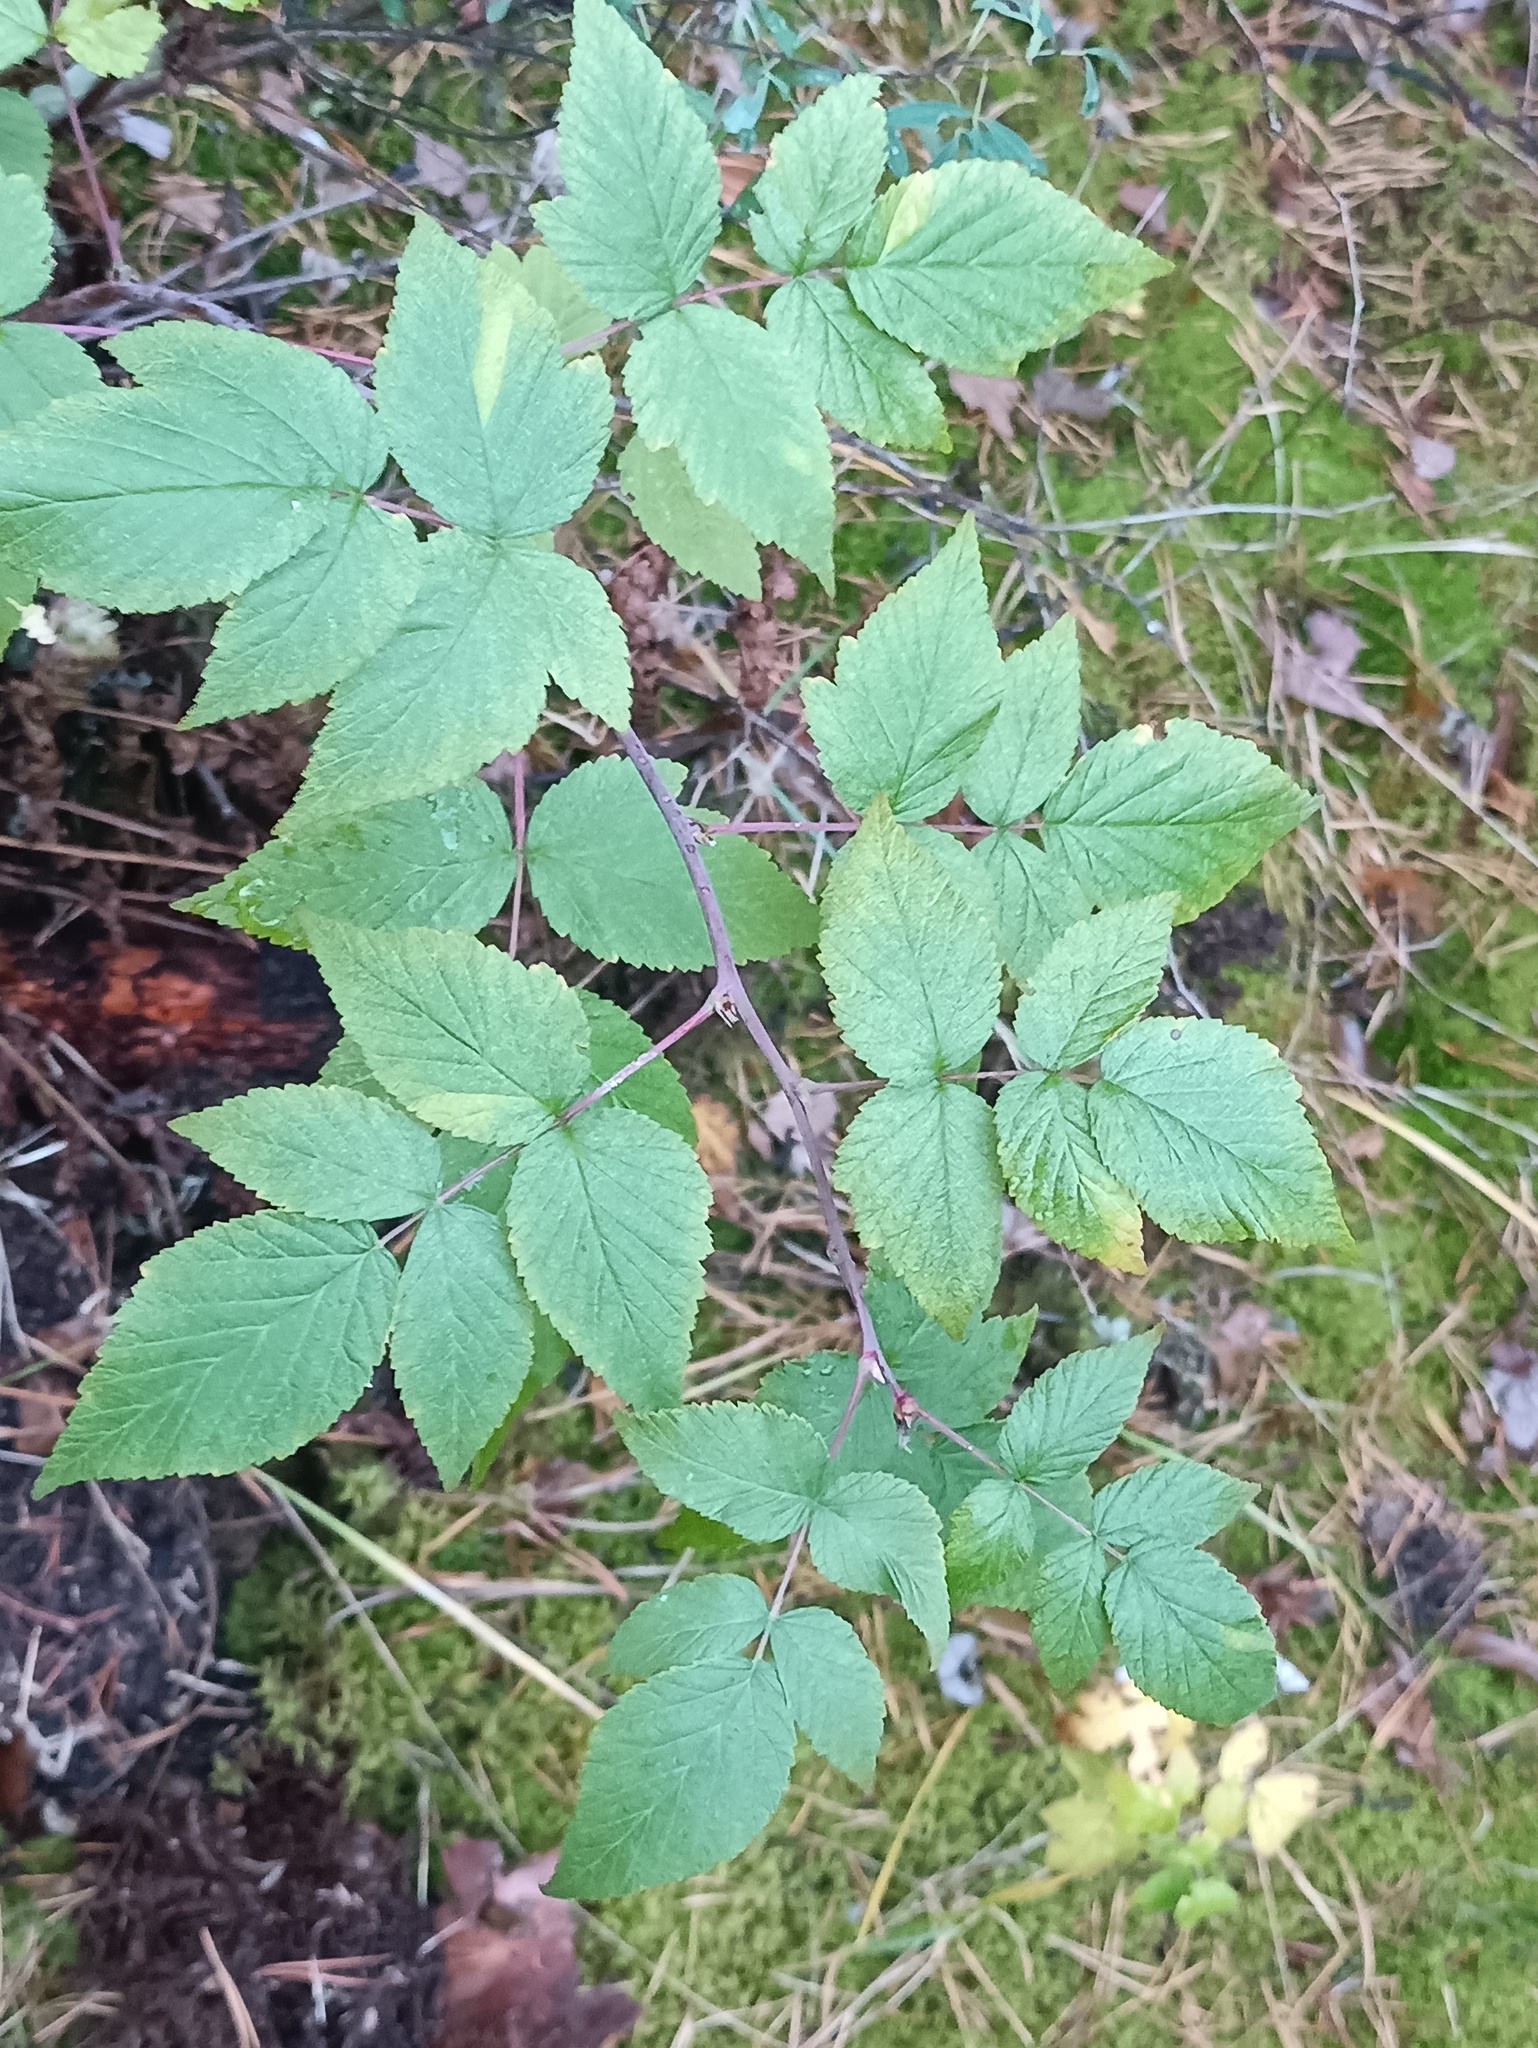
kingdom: Plantae
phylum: Tracheophyta
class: Magnoliopsida
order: Rosales
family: Rosaceae
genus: Rubus
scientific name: Rubus idaeus
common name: Raspberry
